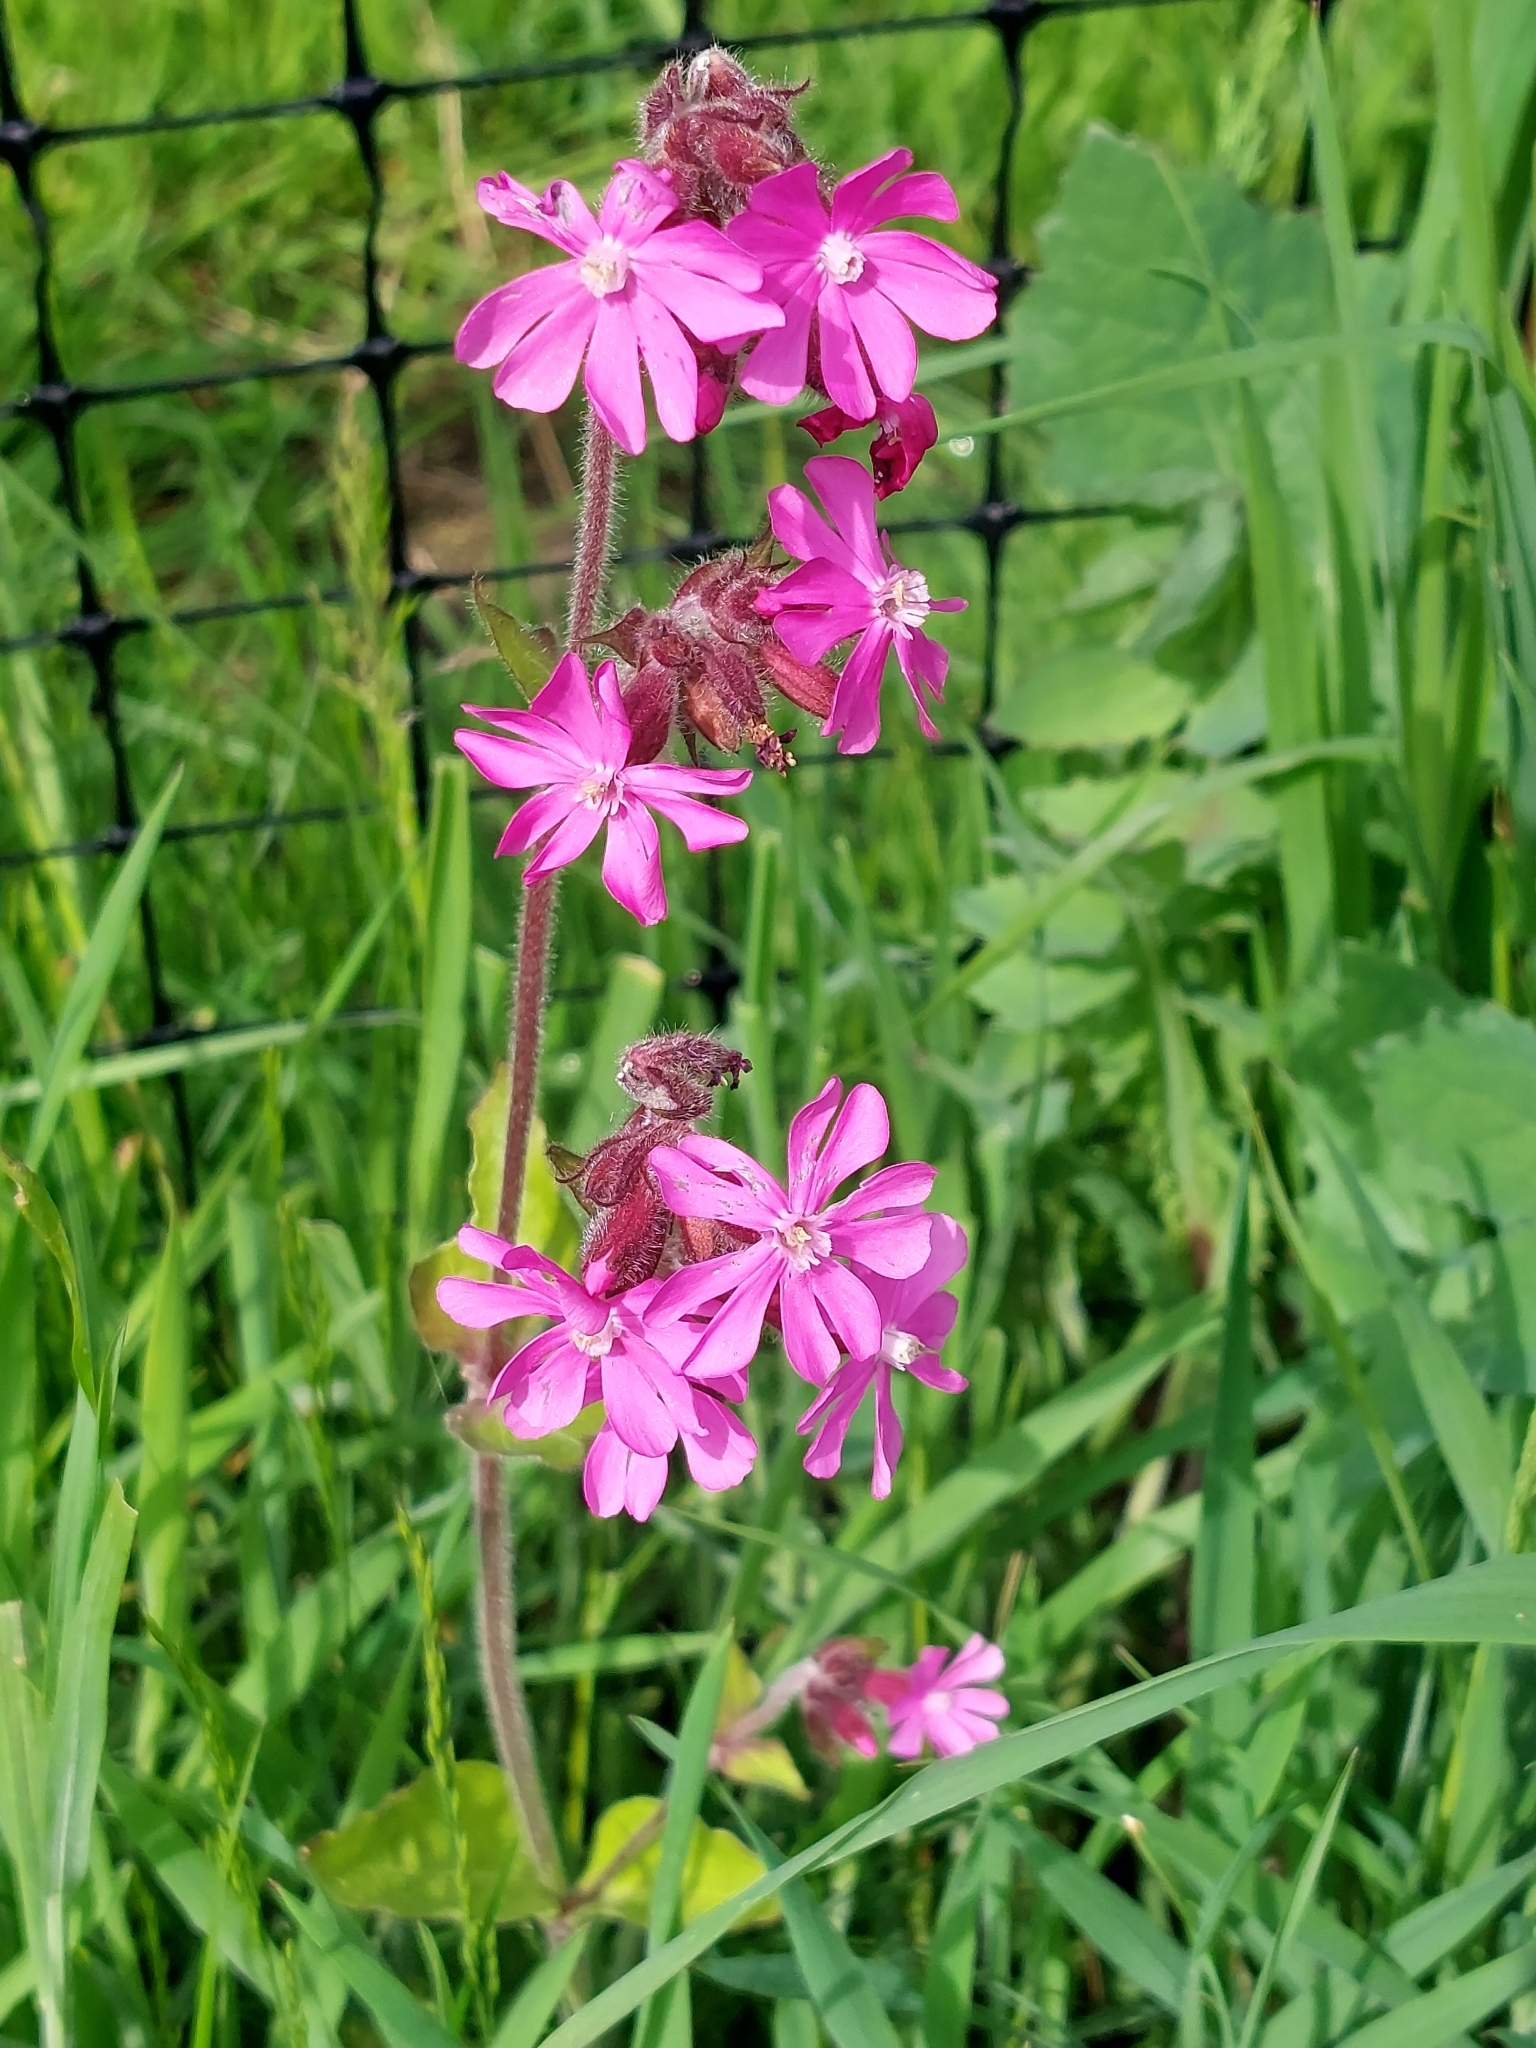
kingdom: Plantae
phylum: Tracheophyta
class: Magnoliopsida
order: Caryophyllales
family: Caryophyllaceae
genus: Silene
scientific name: Silene dioica
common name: Red campion
